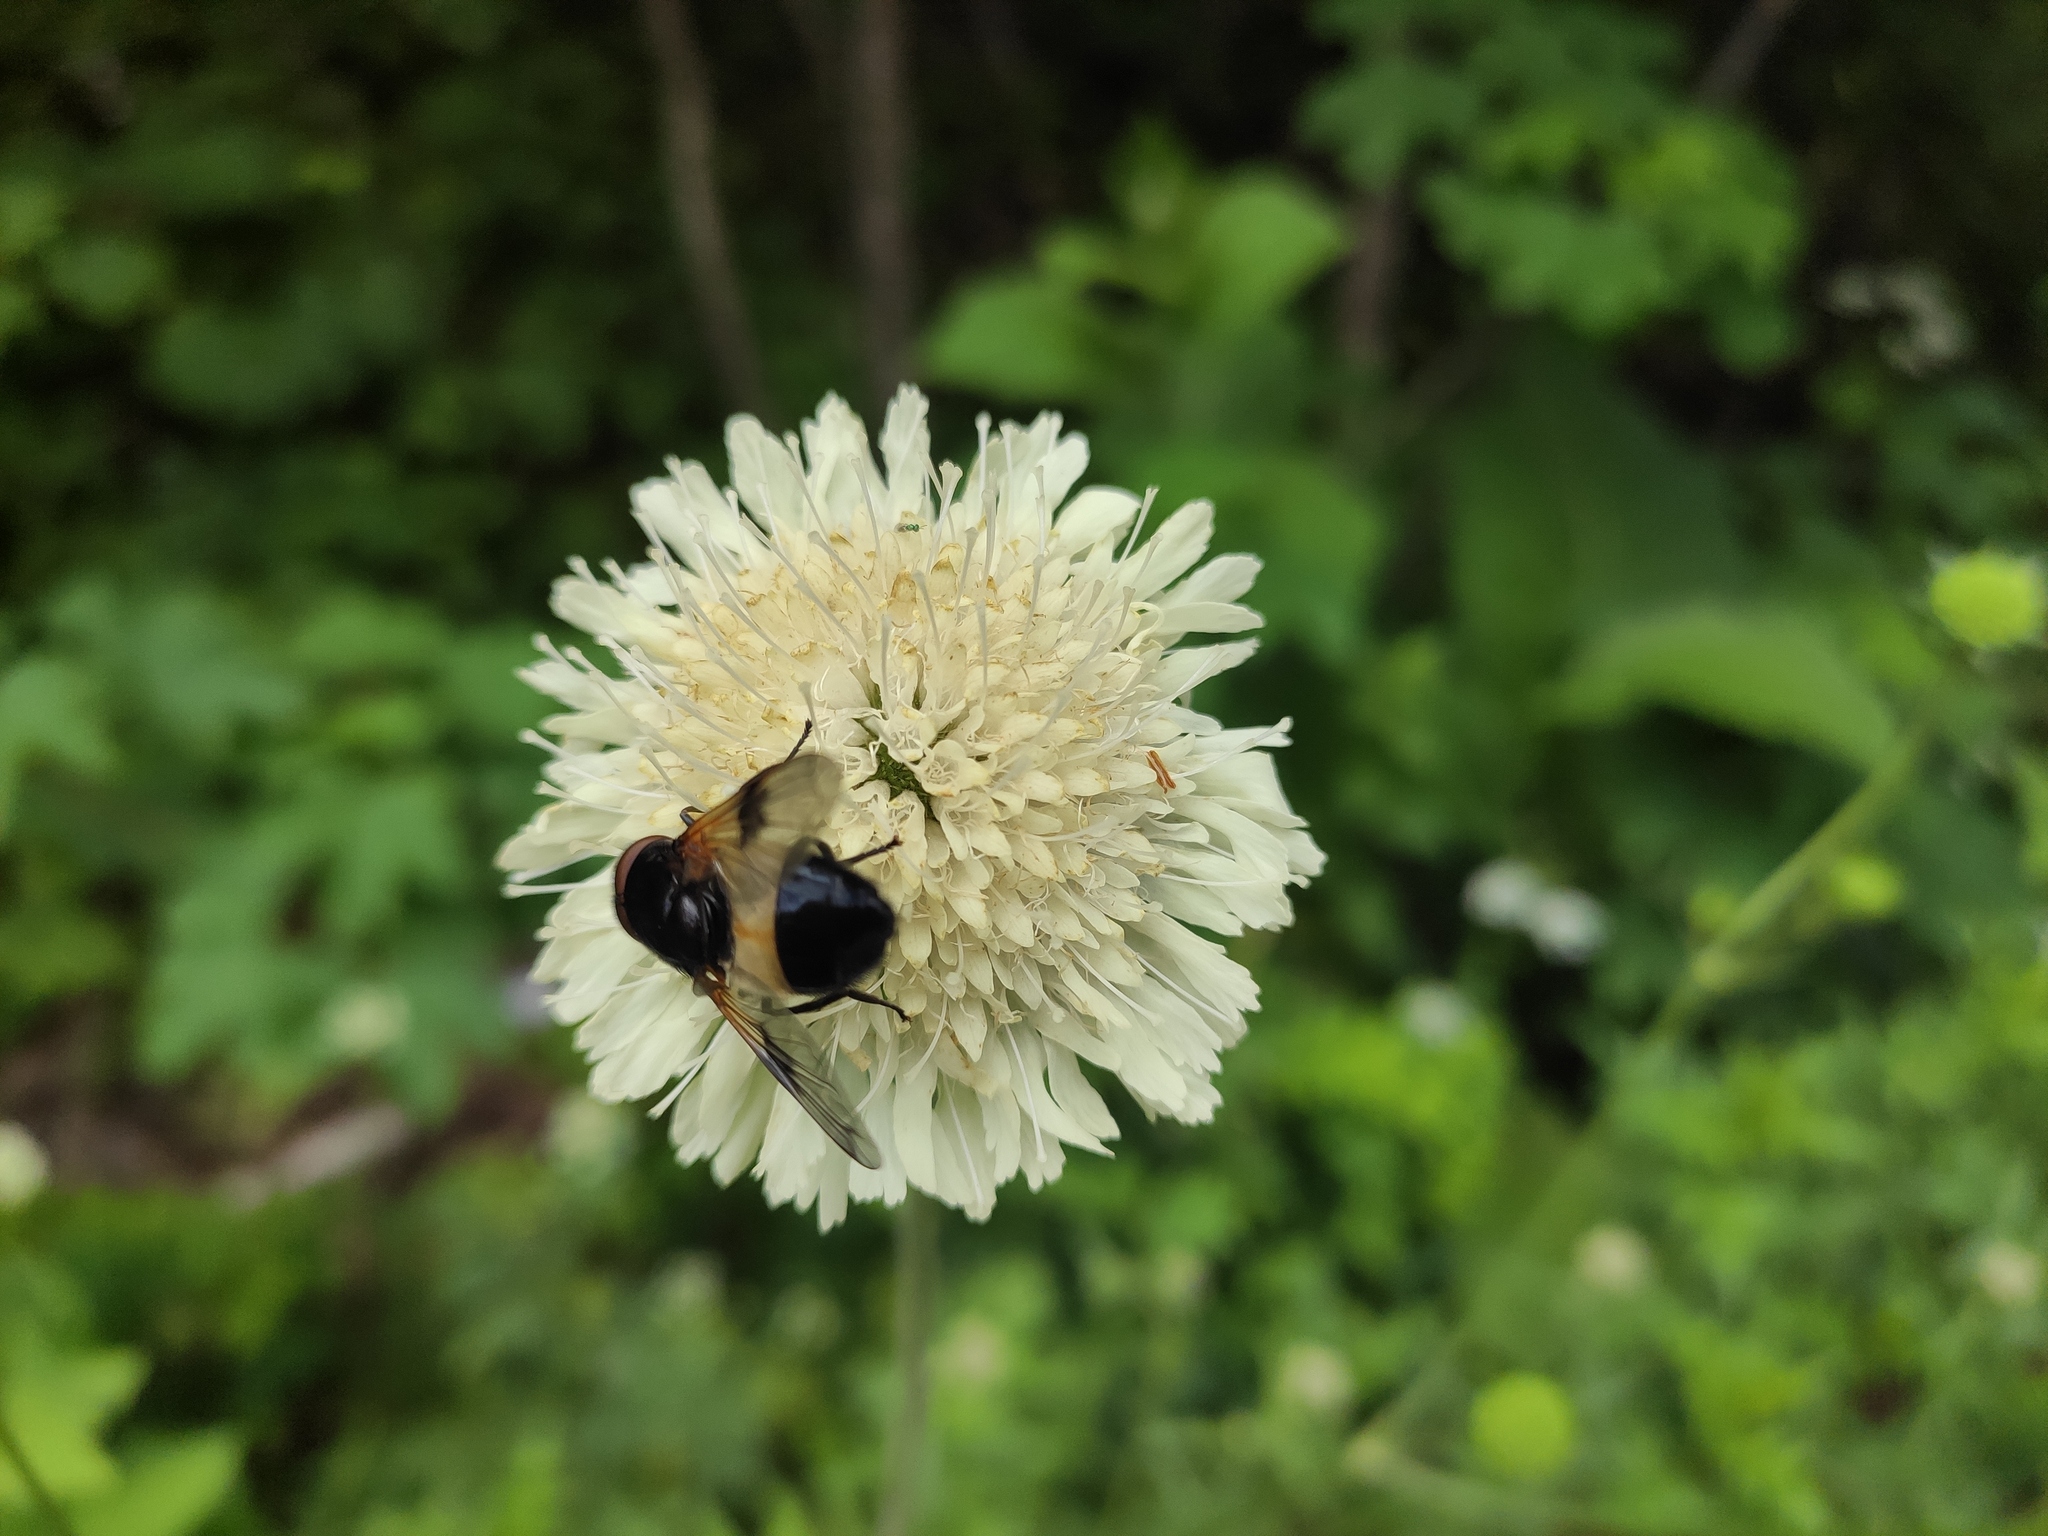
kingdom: Animalia
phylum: Arthropoda
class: Insecta
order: Diptera
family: Syrphidae
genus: Volucella
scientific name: Volucella pellucens
